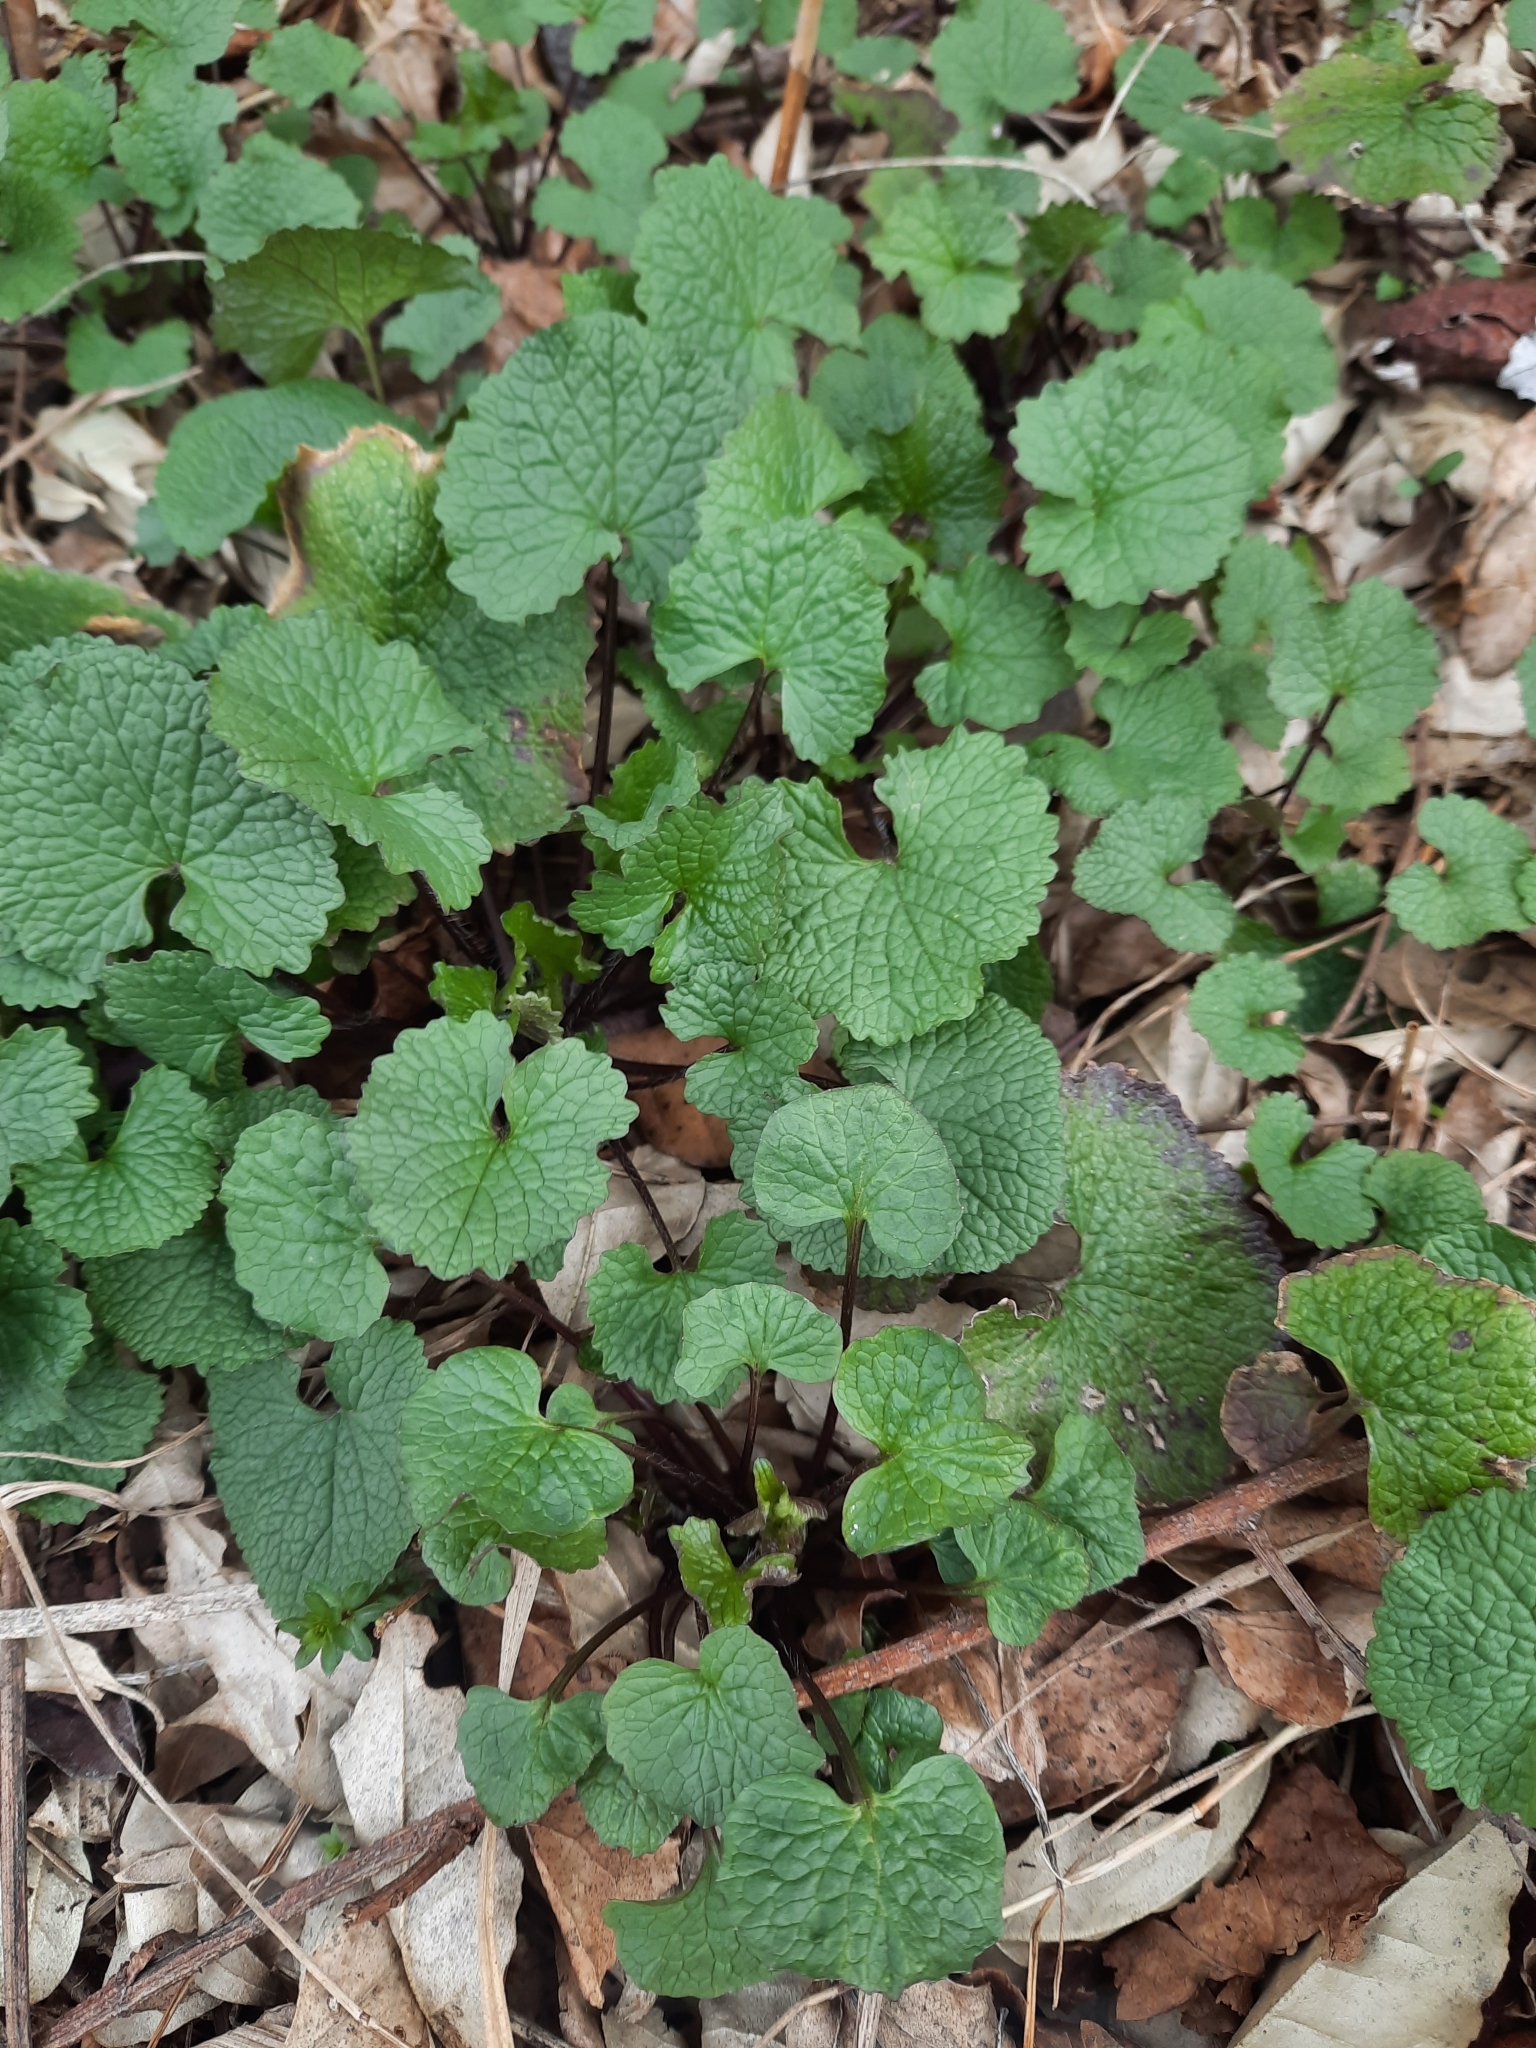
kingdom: Plantae
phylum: Tracheophyta
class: Magnoliopsida
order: Brassicales
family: Brassicaceae
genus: Alliaria
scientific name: Alliaria petiolata
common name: Garlic mustard
